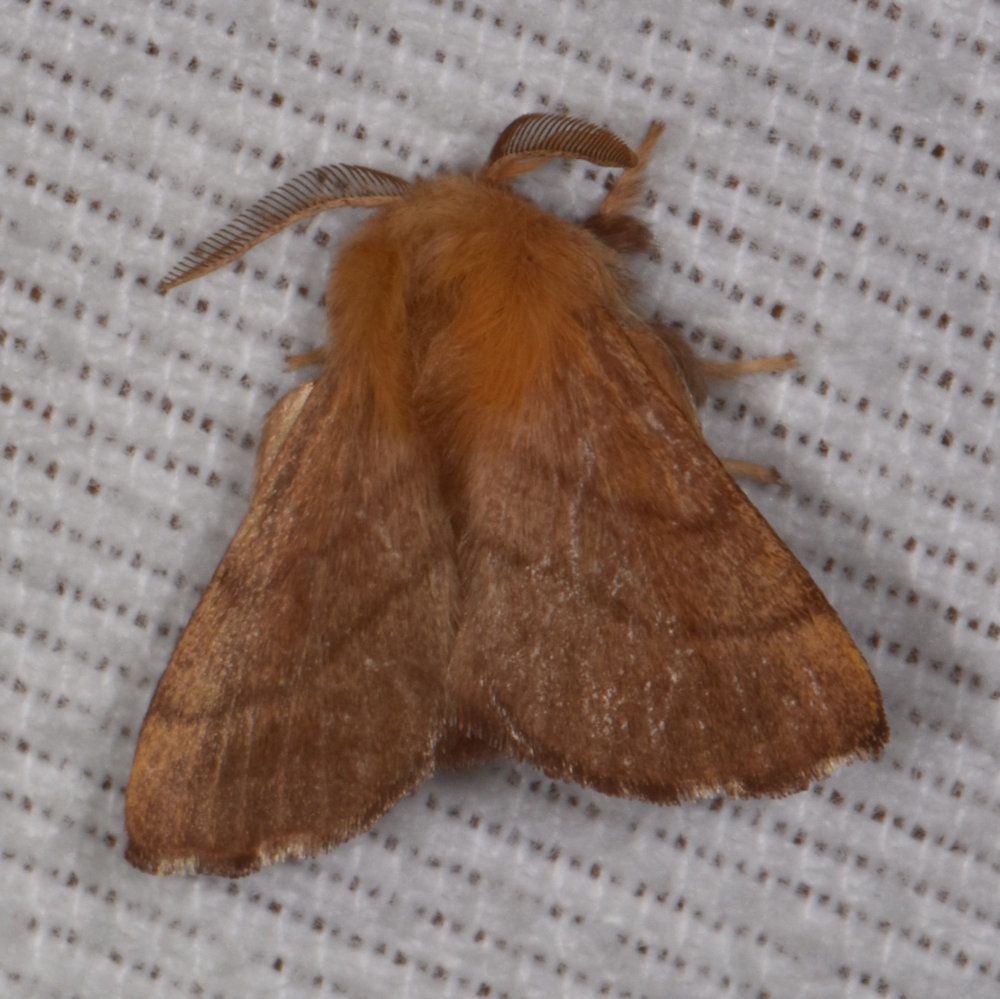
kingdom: Animalia
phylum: Arthropoda
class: Insecta
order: Lepidoptera
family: Lasiocampidae
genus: Malacosoma
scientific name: Malacosoma disstria
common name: Forest tent caterpillar
